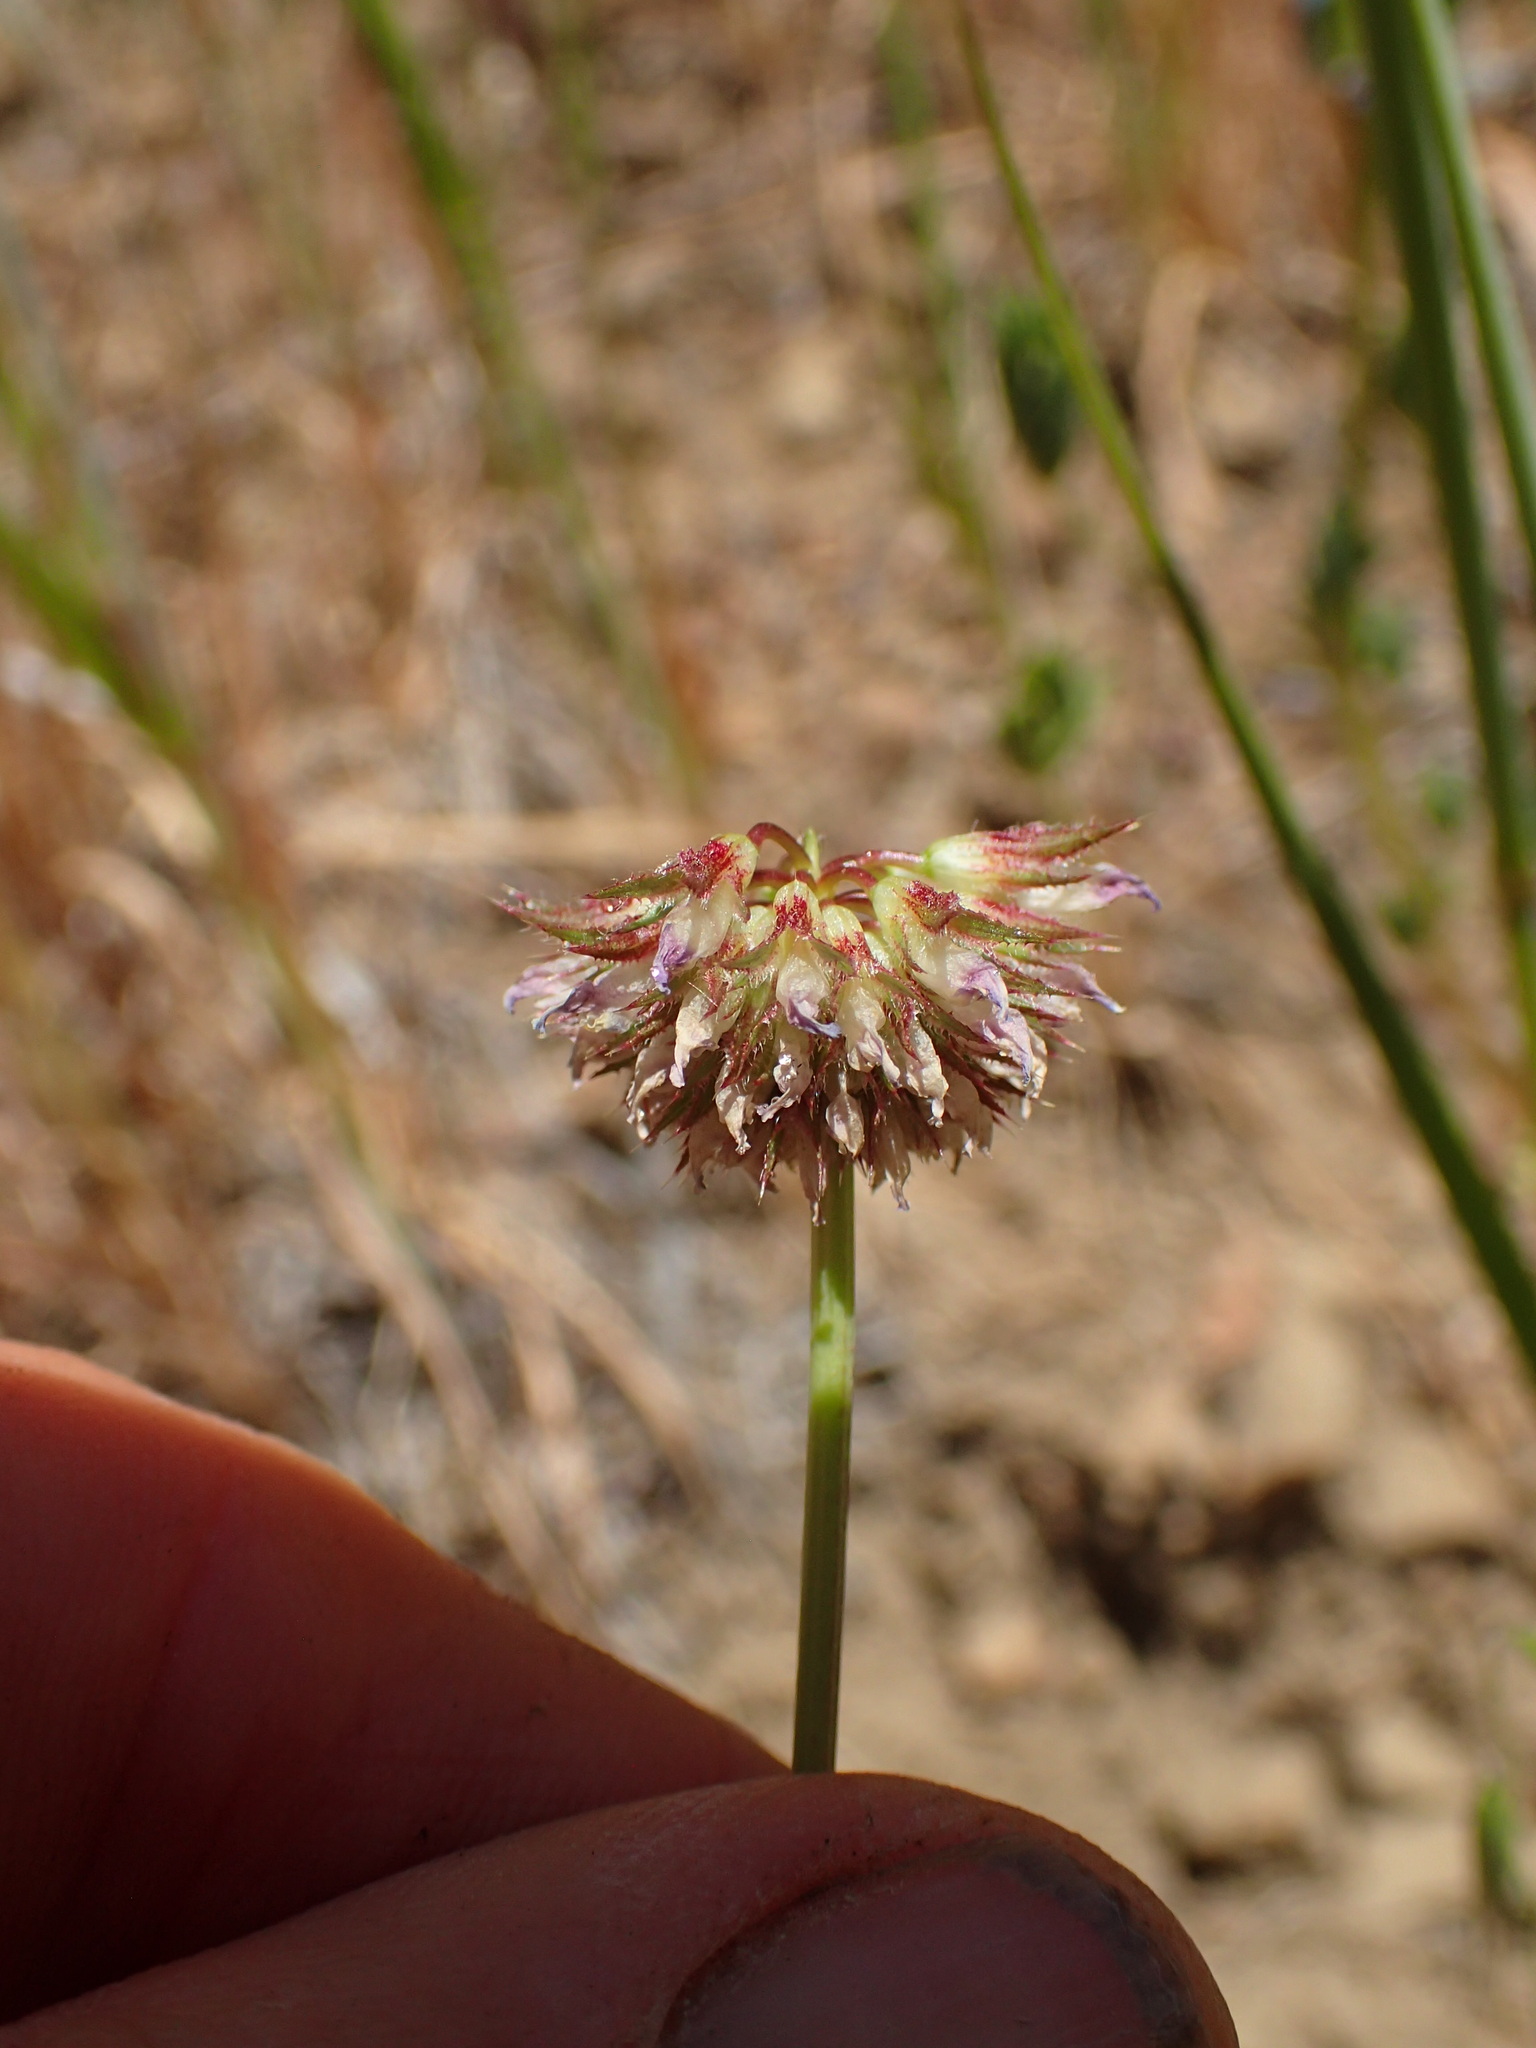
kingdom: Plantae
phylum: Tracheophyta
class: Magnoliopsida
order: Fabales
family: Fabaceae
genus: Trifolium
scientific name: Trifolium ciliolatum
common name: Foothill clover
